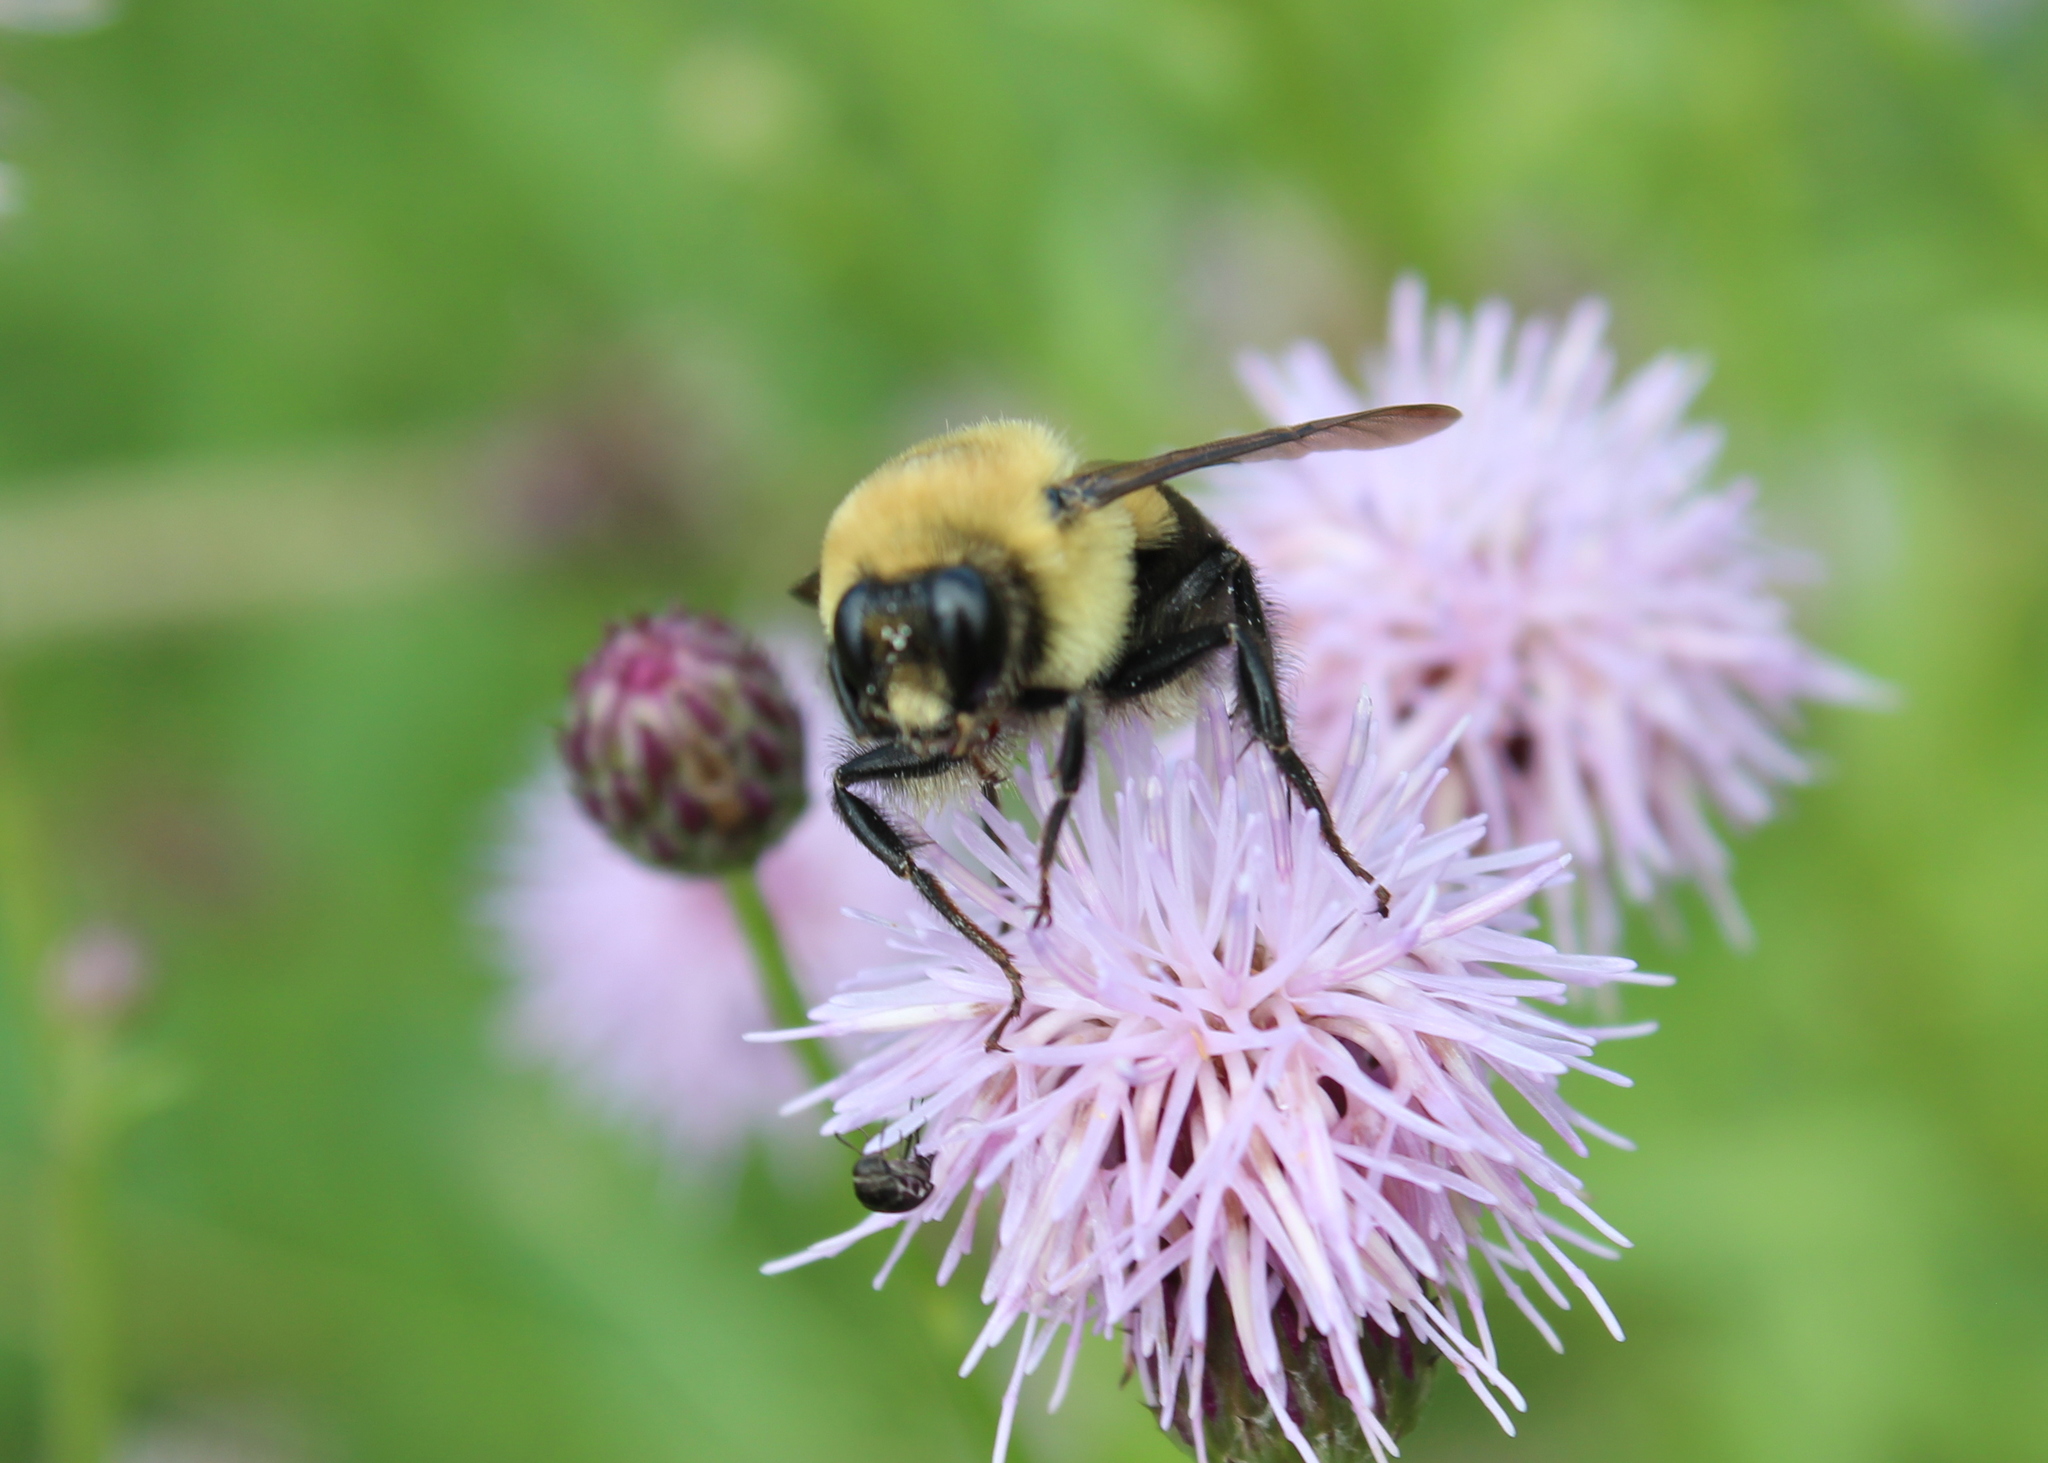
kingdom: Animalia
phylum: Arthropoda
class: Insecta
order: Hymenoptera
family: Apidae
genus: Bombus
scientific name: Bombus griseocollis
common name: Brown-belted bumble bee
